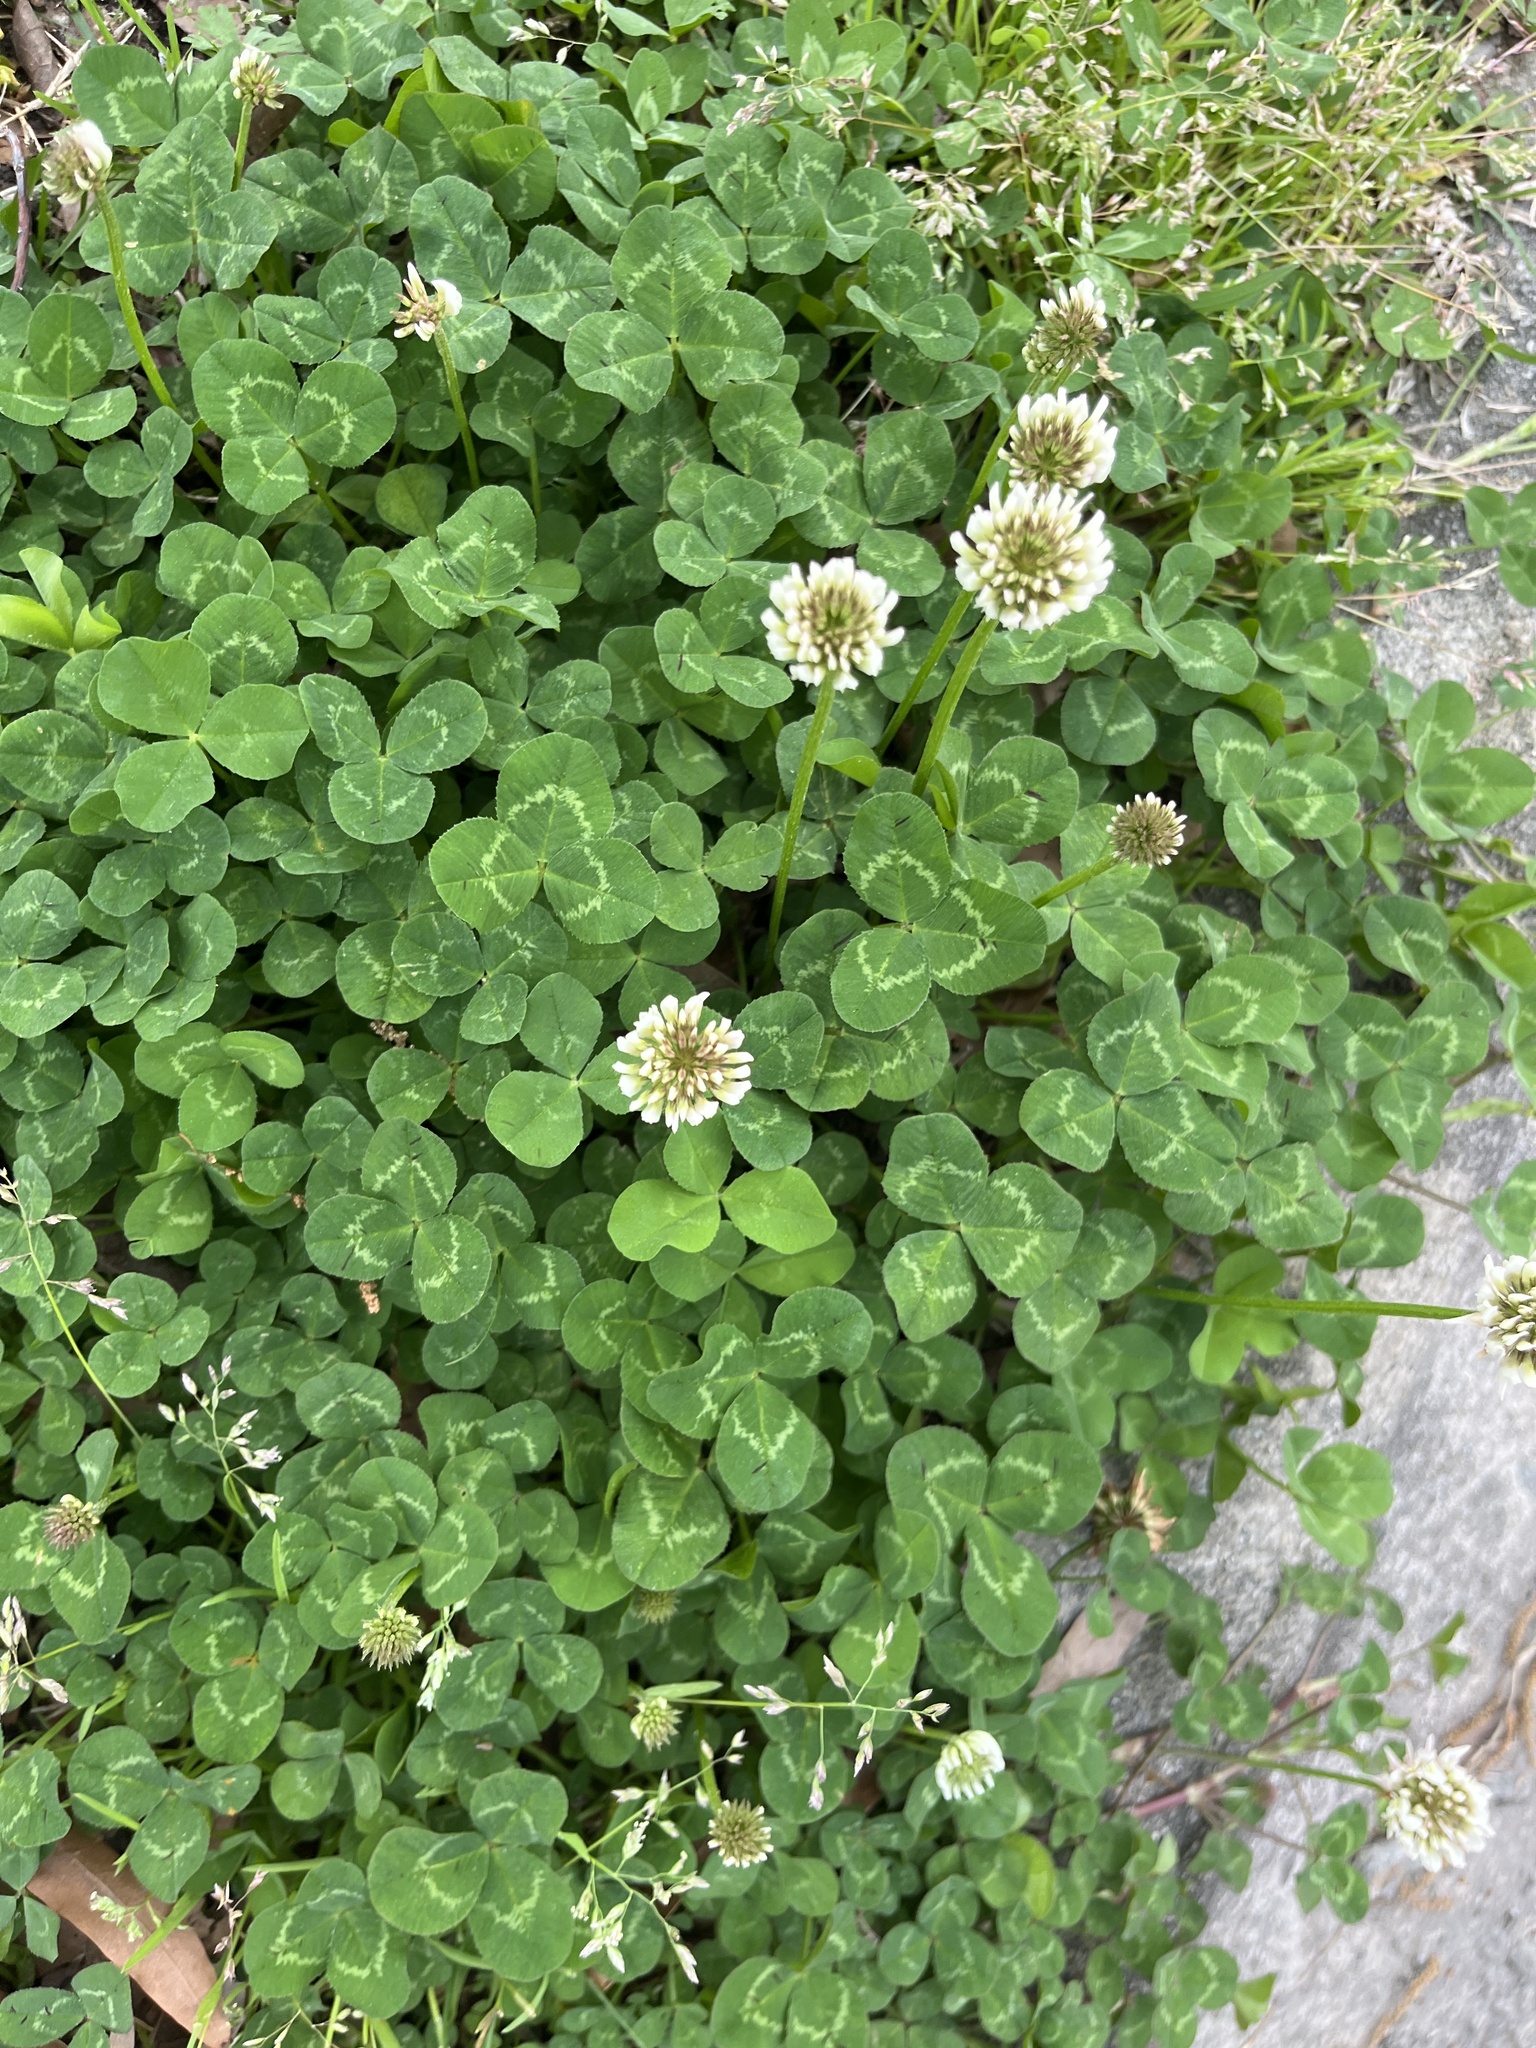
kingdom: Plantae
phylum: Tracheophyta
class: Magnoliopsida
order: Fabales
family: Fabaceae
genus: Trifolium
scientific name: Trifolium repens
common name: White clover
